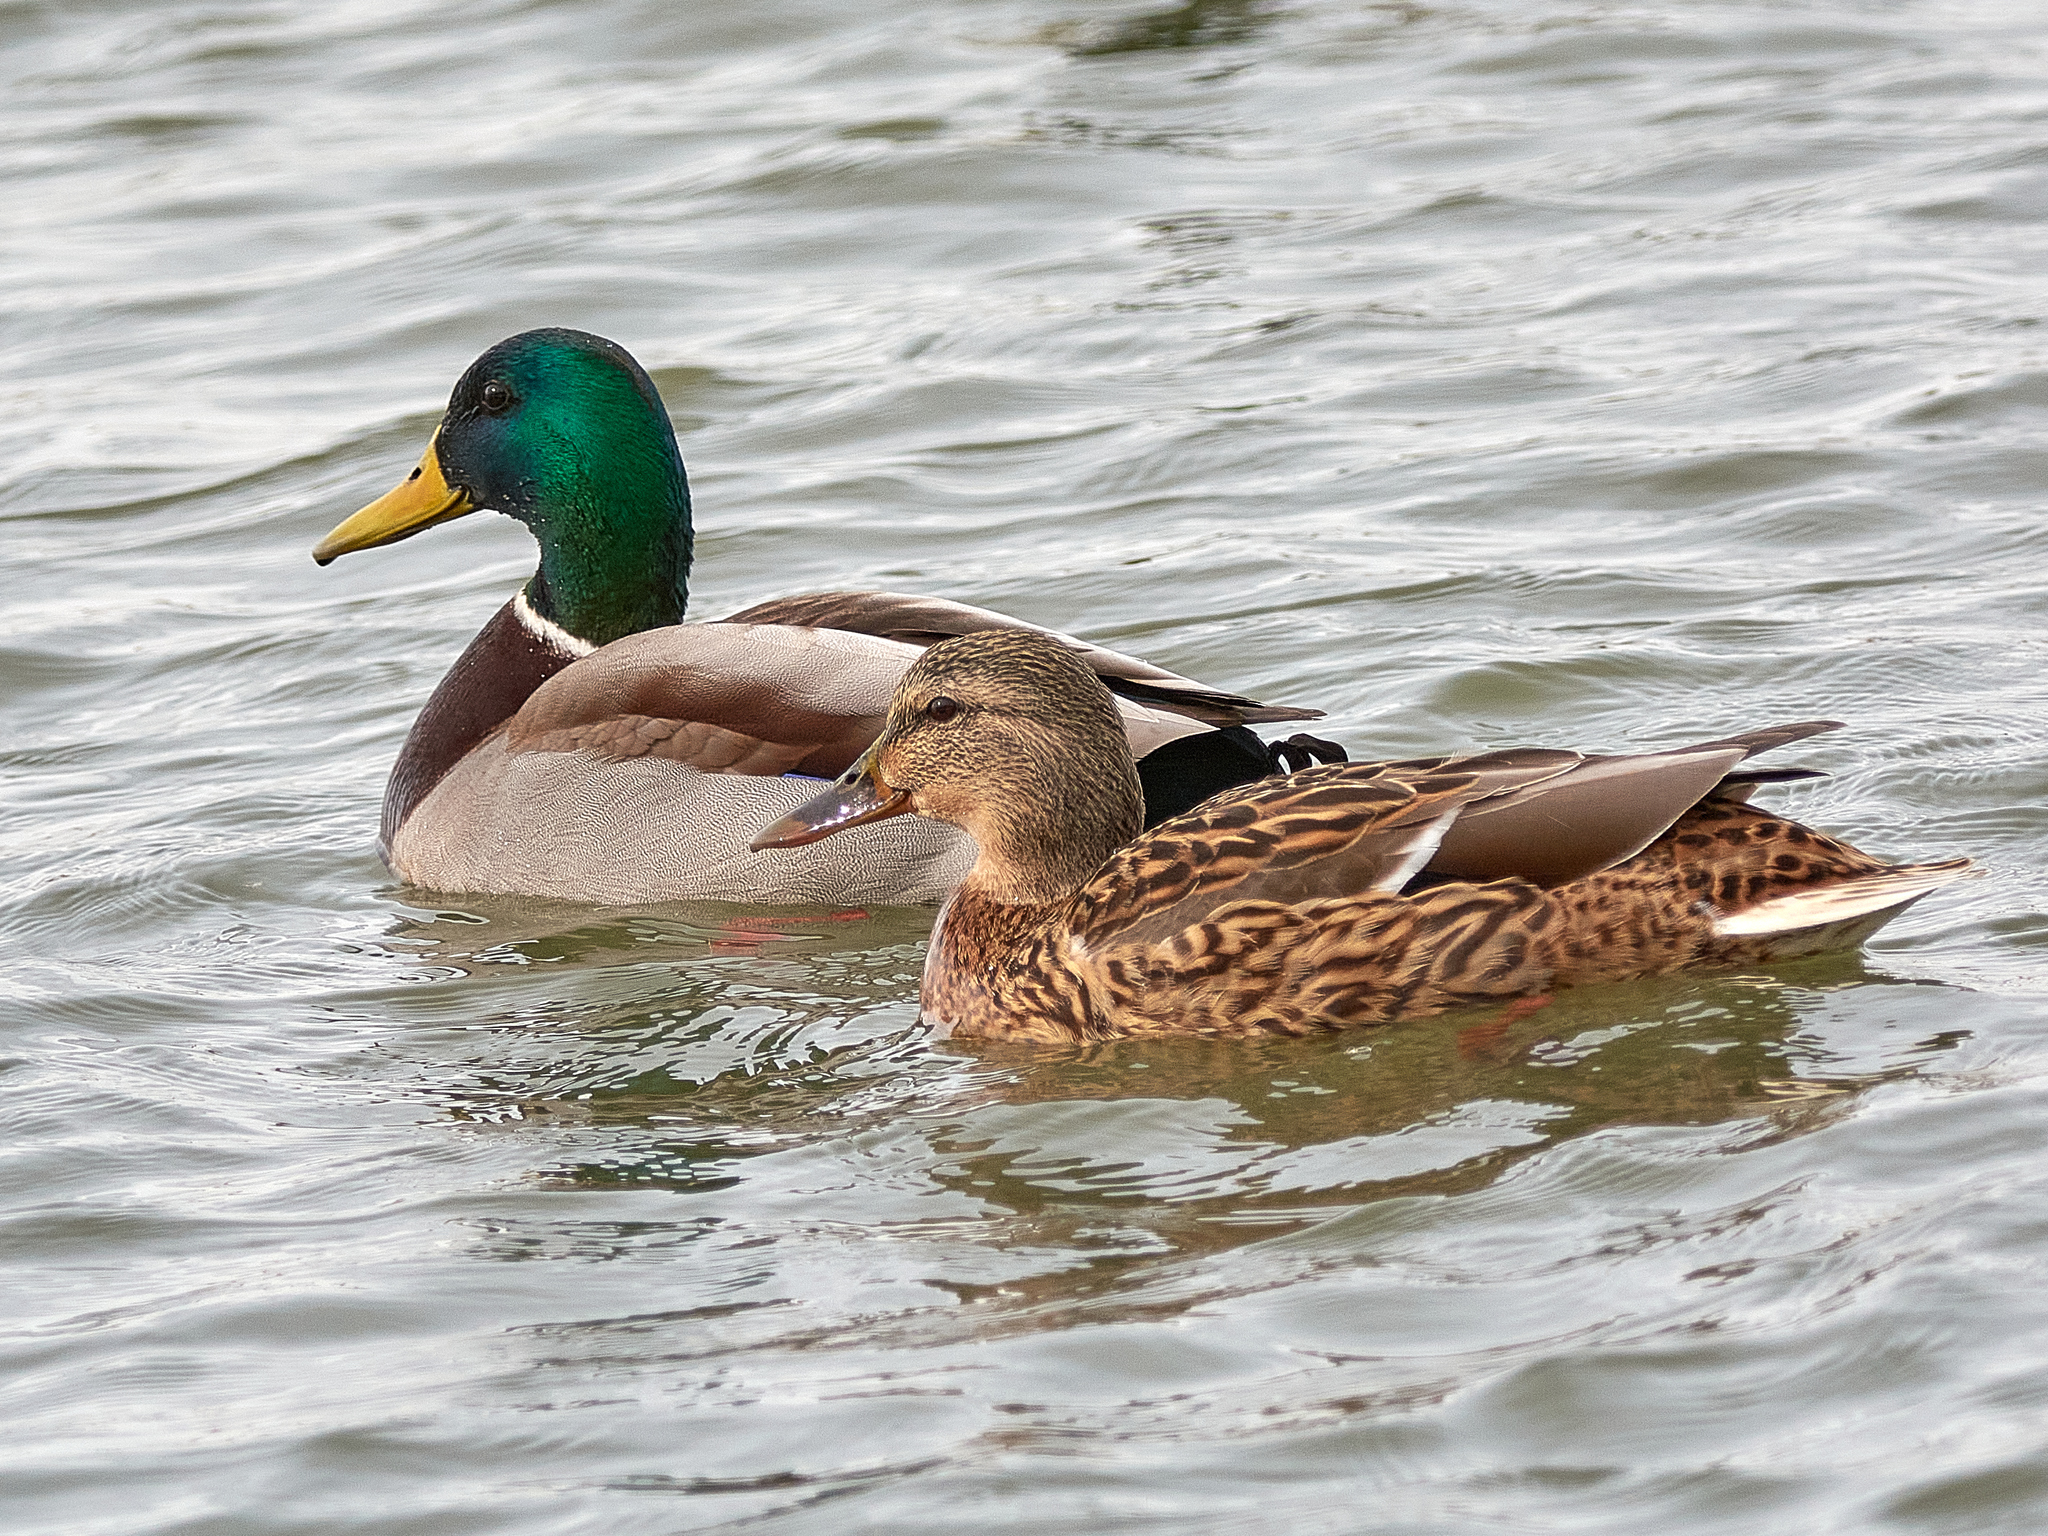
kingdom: Animalia
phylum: Chordata
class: Aves
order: Anseriformes
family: Anatidae
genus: Anas
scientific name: Anas platyrhynchos
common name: Mallard
